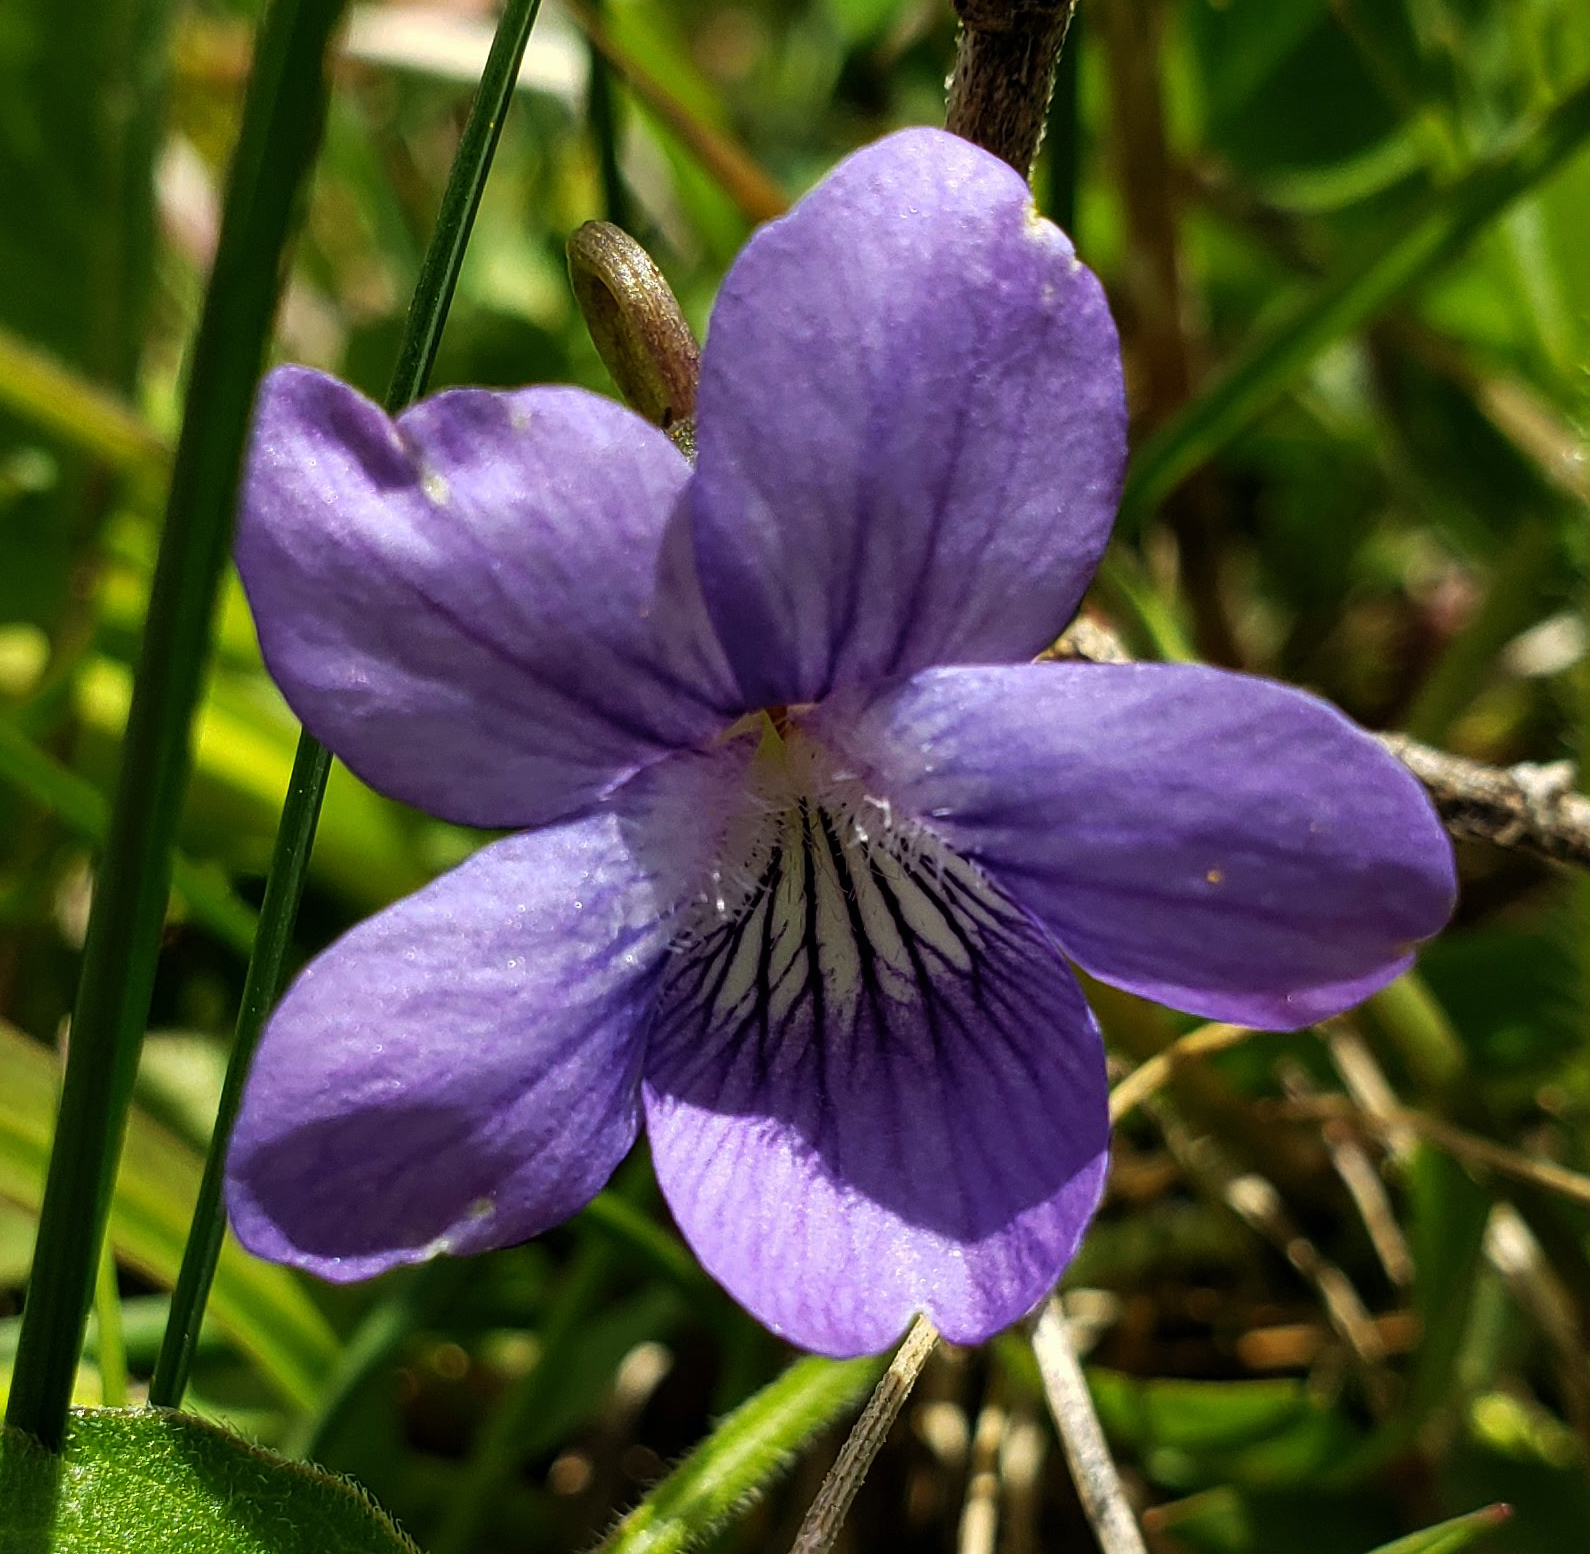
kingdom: Plantae
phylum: Tracheophyta
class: Magnoliopsida
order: Malpighiales
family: Violaceae
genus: Viola
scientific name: Viola pedatifida
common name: Prairie violet
